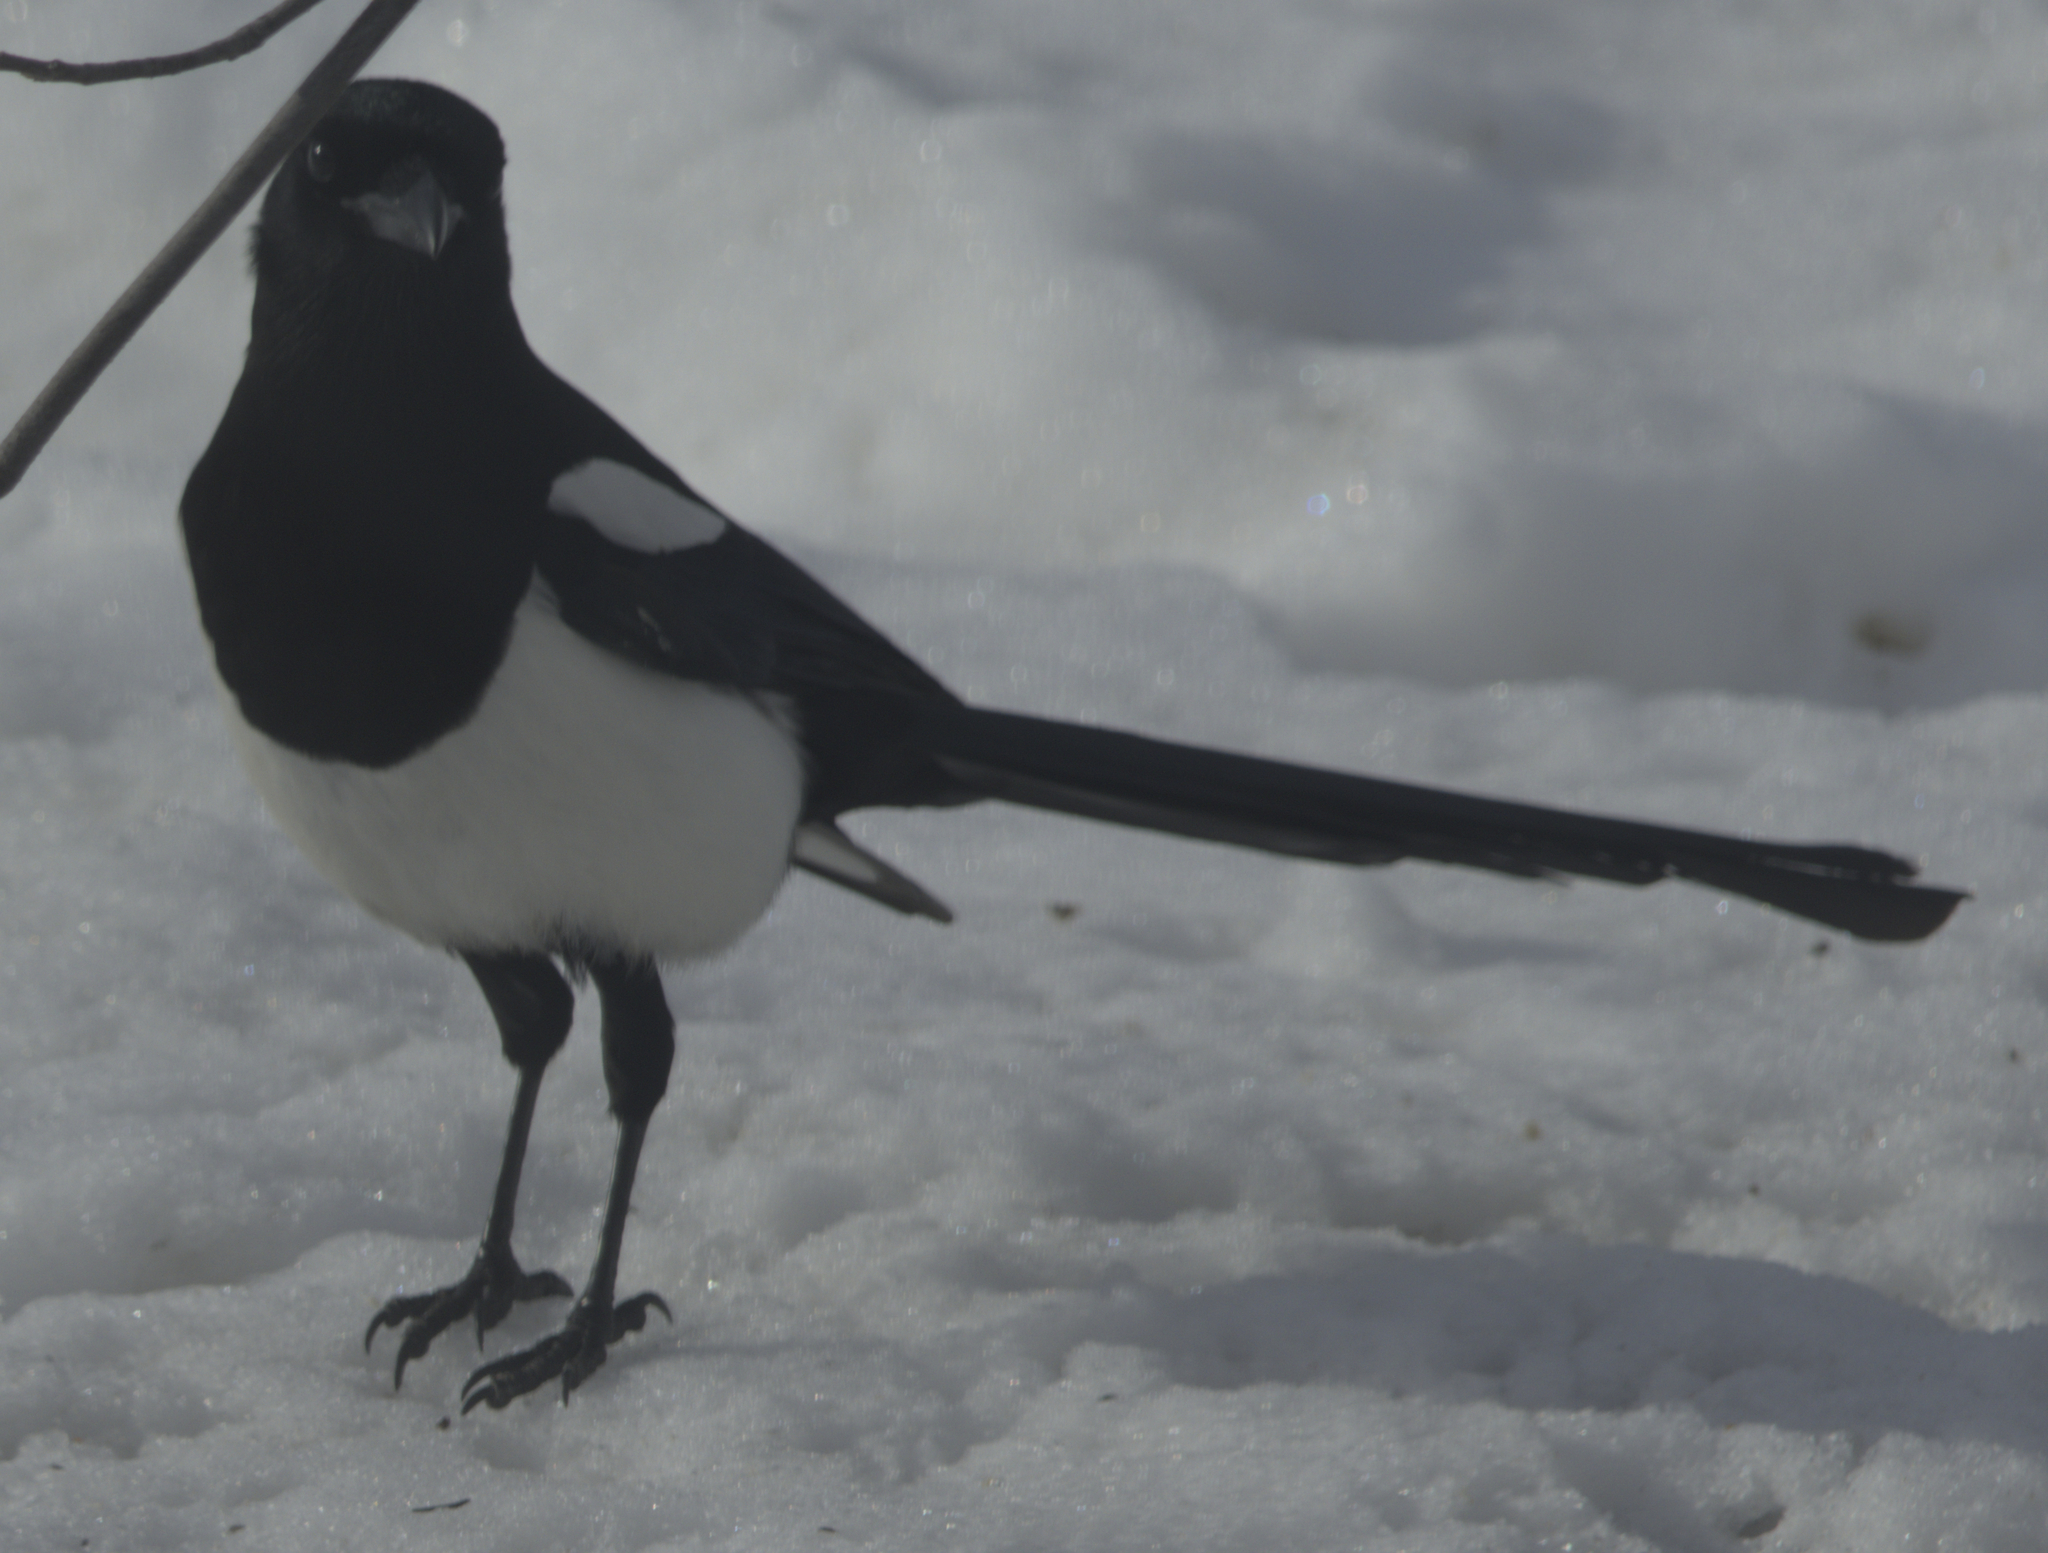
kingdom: Animalia
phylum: Chordata
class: Aves
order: Passeriformes
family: Corvidae
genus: Pica
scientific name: Pica hudsonia
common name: Black-billed magpie
